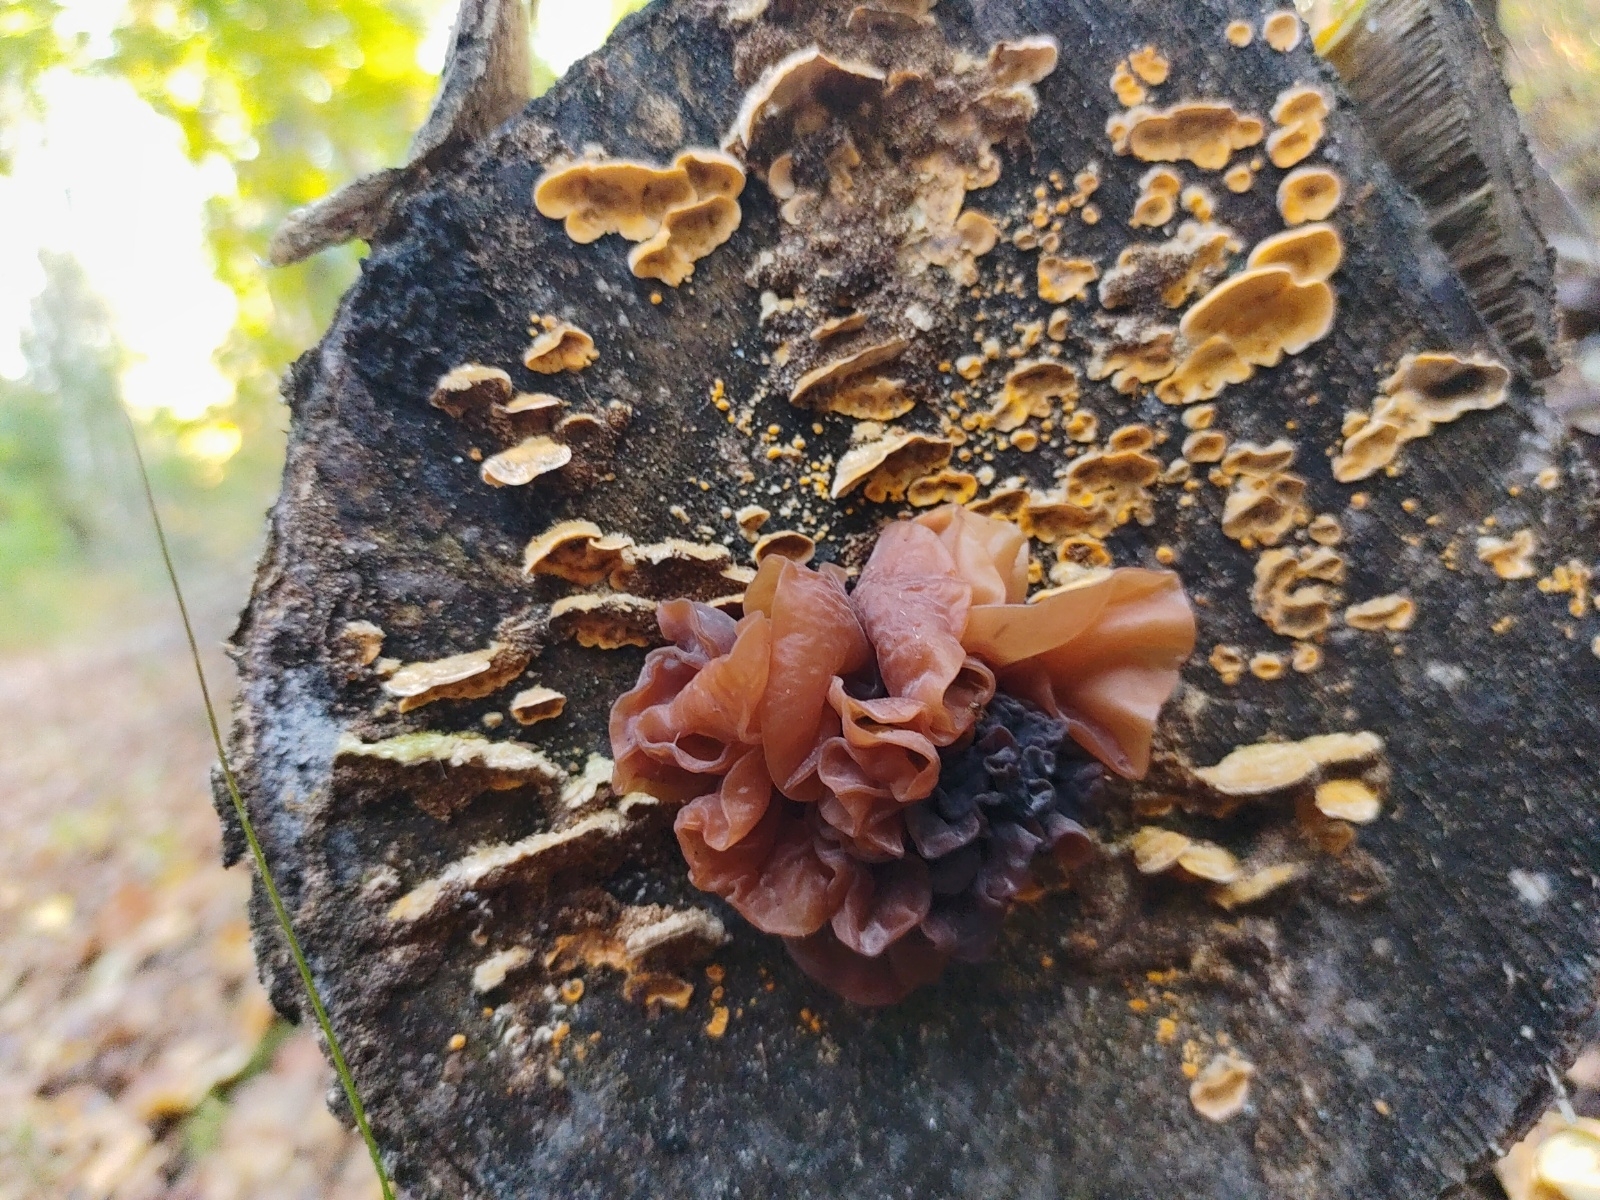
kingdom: Fungi
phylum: Basidiomycota
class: Agaricomycetes
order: Auriculariales
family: Auriculariaceae
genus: Auricularia
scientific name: Auricularia auricula-judae
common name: Jelly ear
